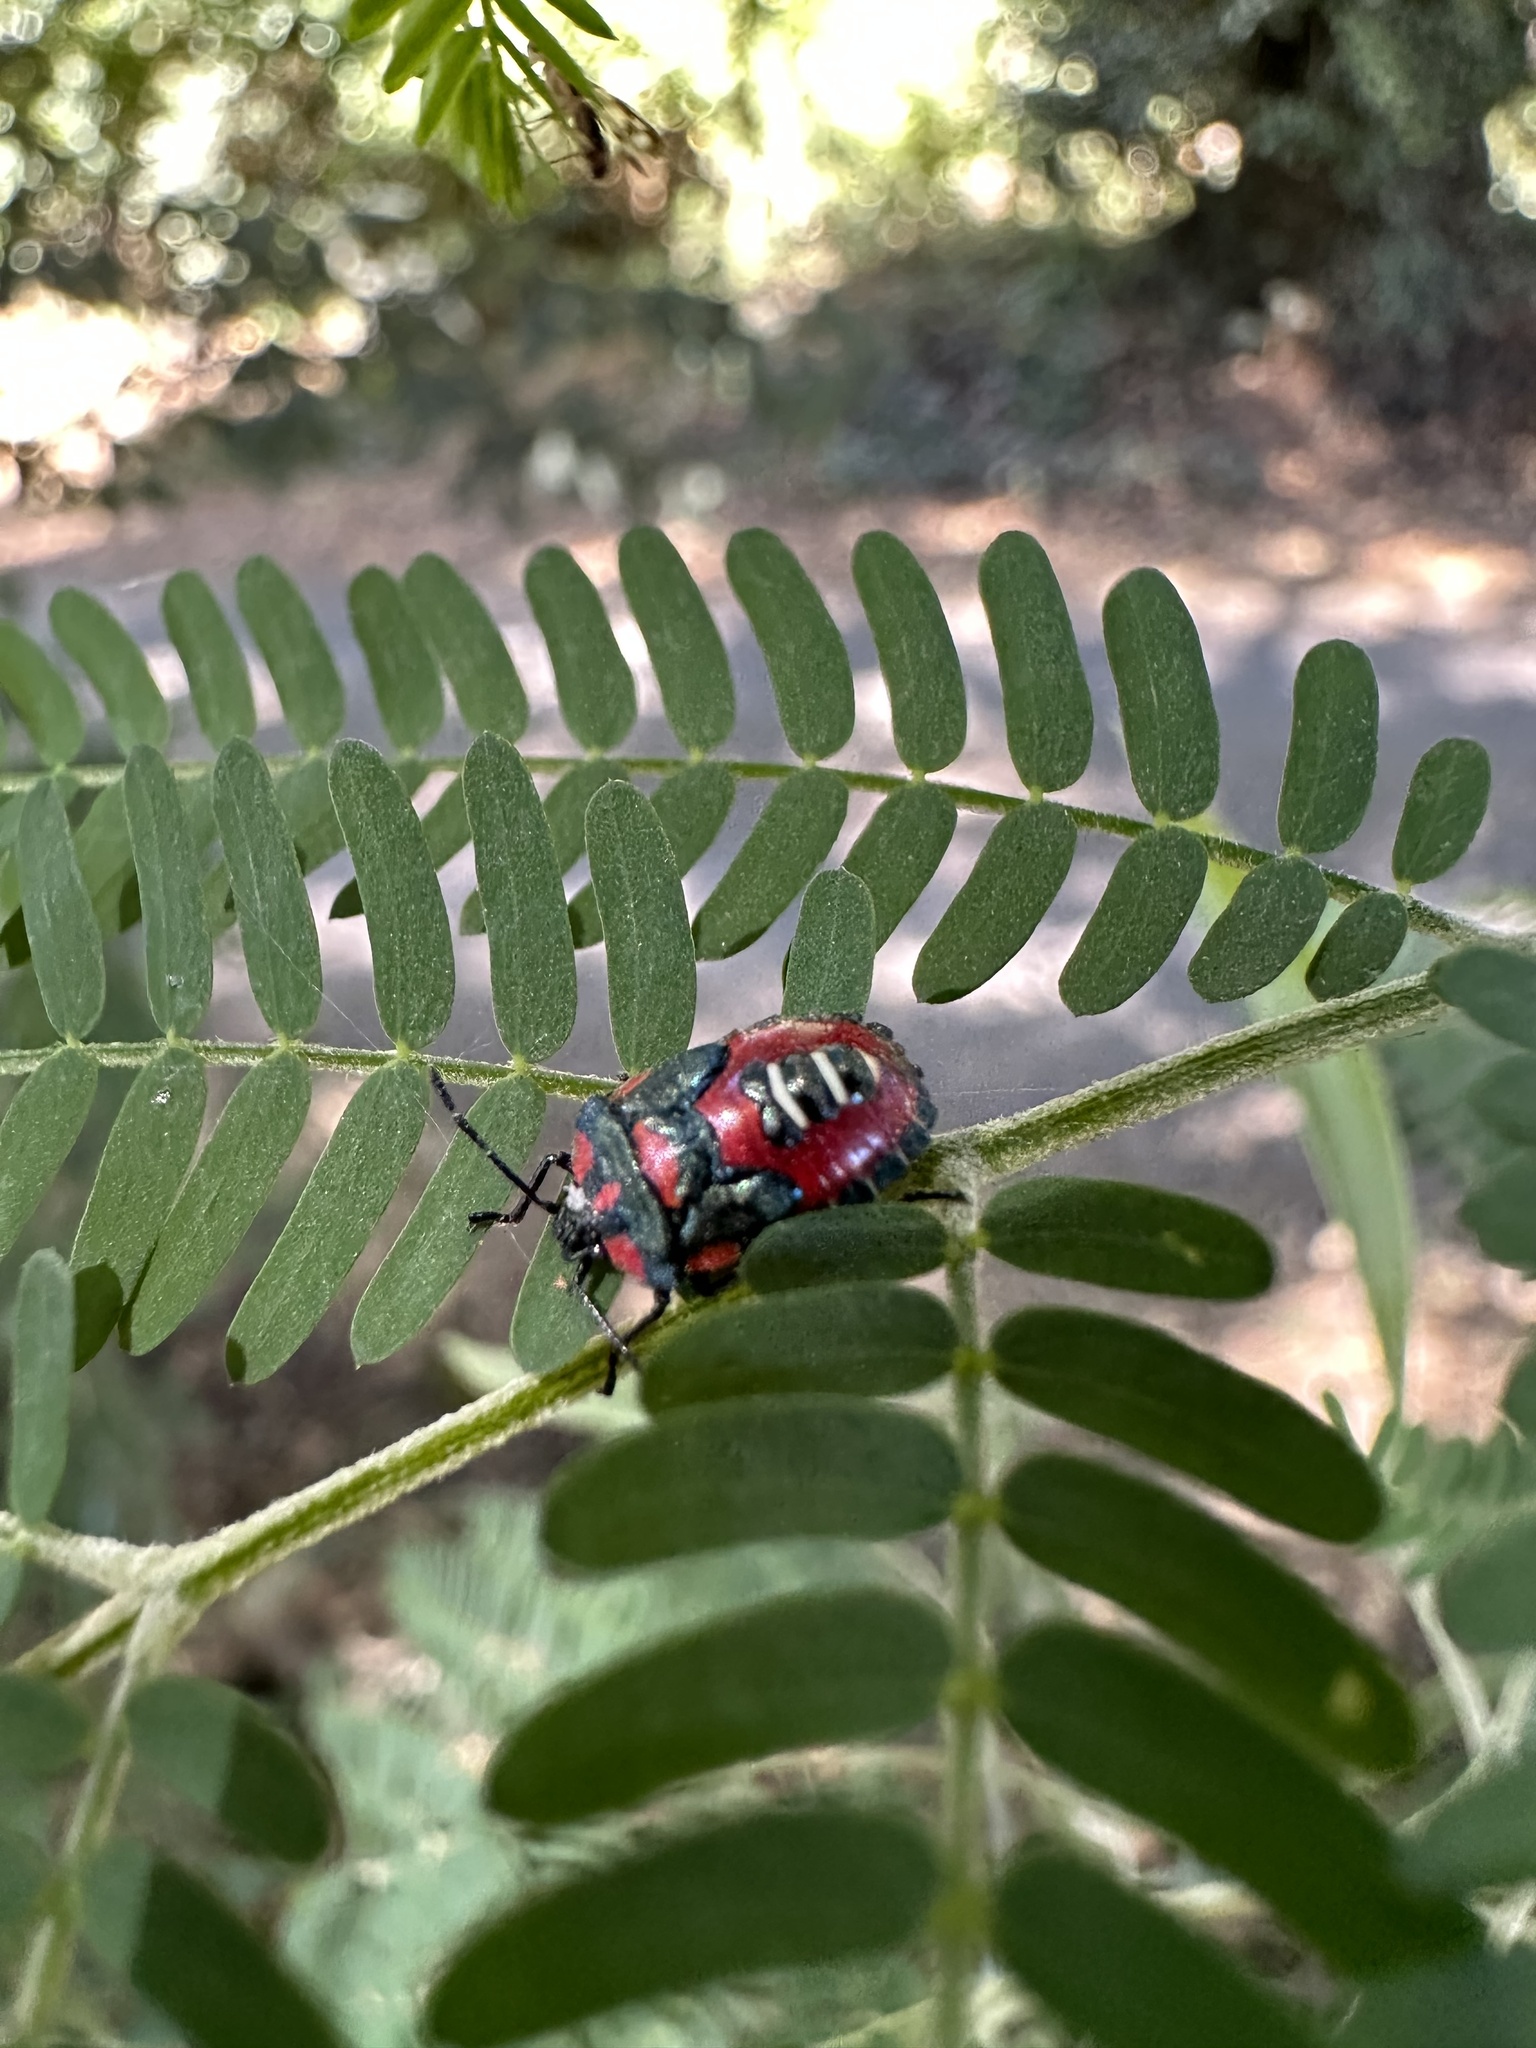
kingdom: Animalia
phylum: Arthropoda
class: Insecta
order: Hemiptera
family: Pentatomidae
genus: Tylospilus
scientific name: Tylospilus
